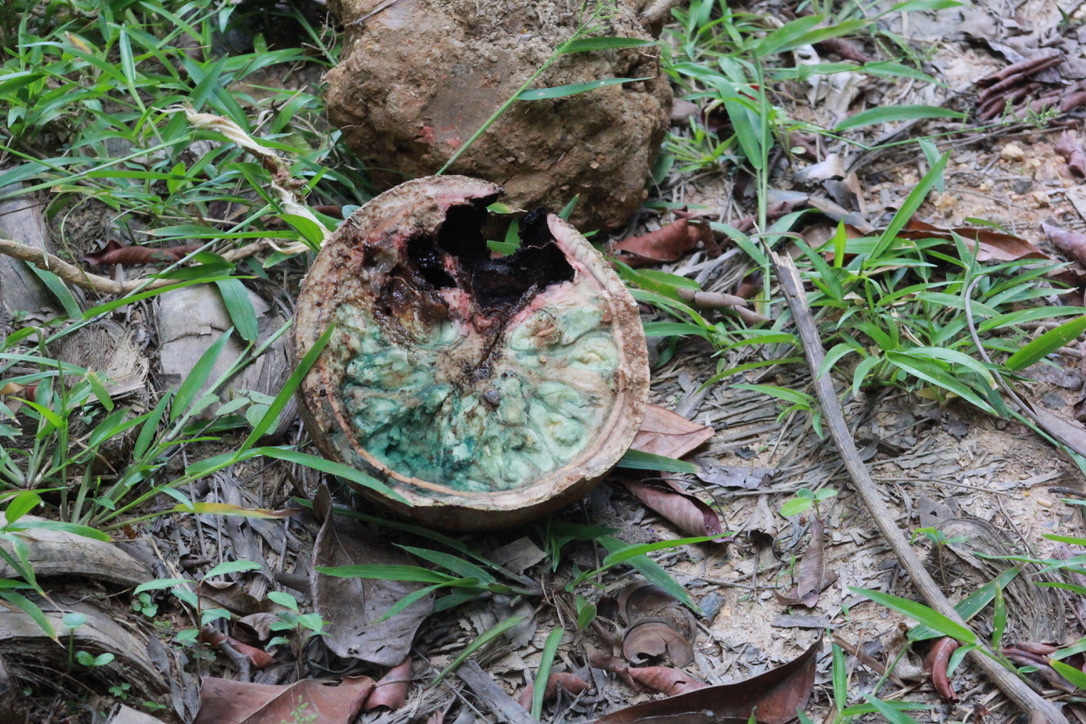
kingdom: Plantae
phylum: Tracheophyta
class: Magnoliopsida
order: Ericales
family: Lecythidaceae
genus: Couroupita
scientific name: Couroupita guianensis
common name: Cannonball tree
